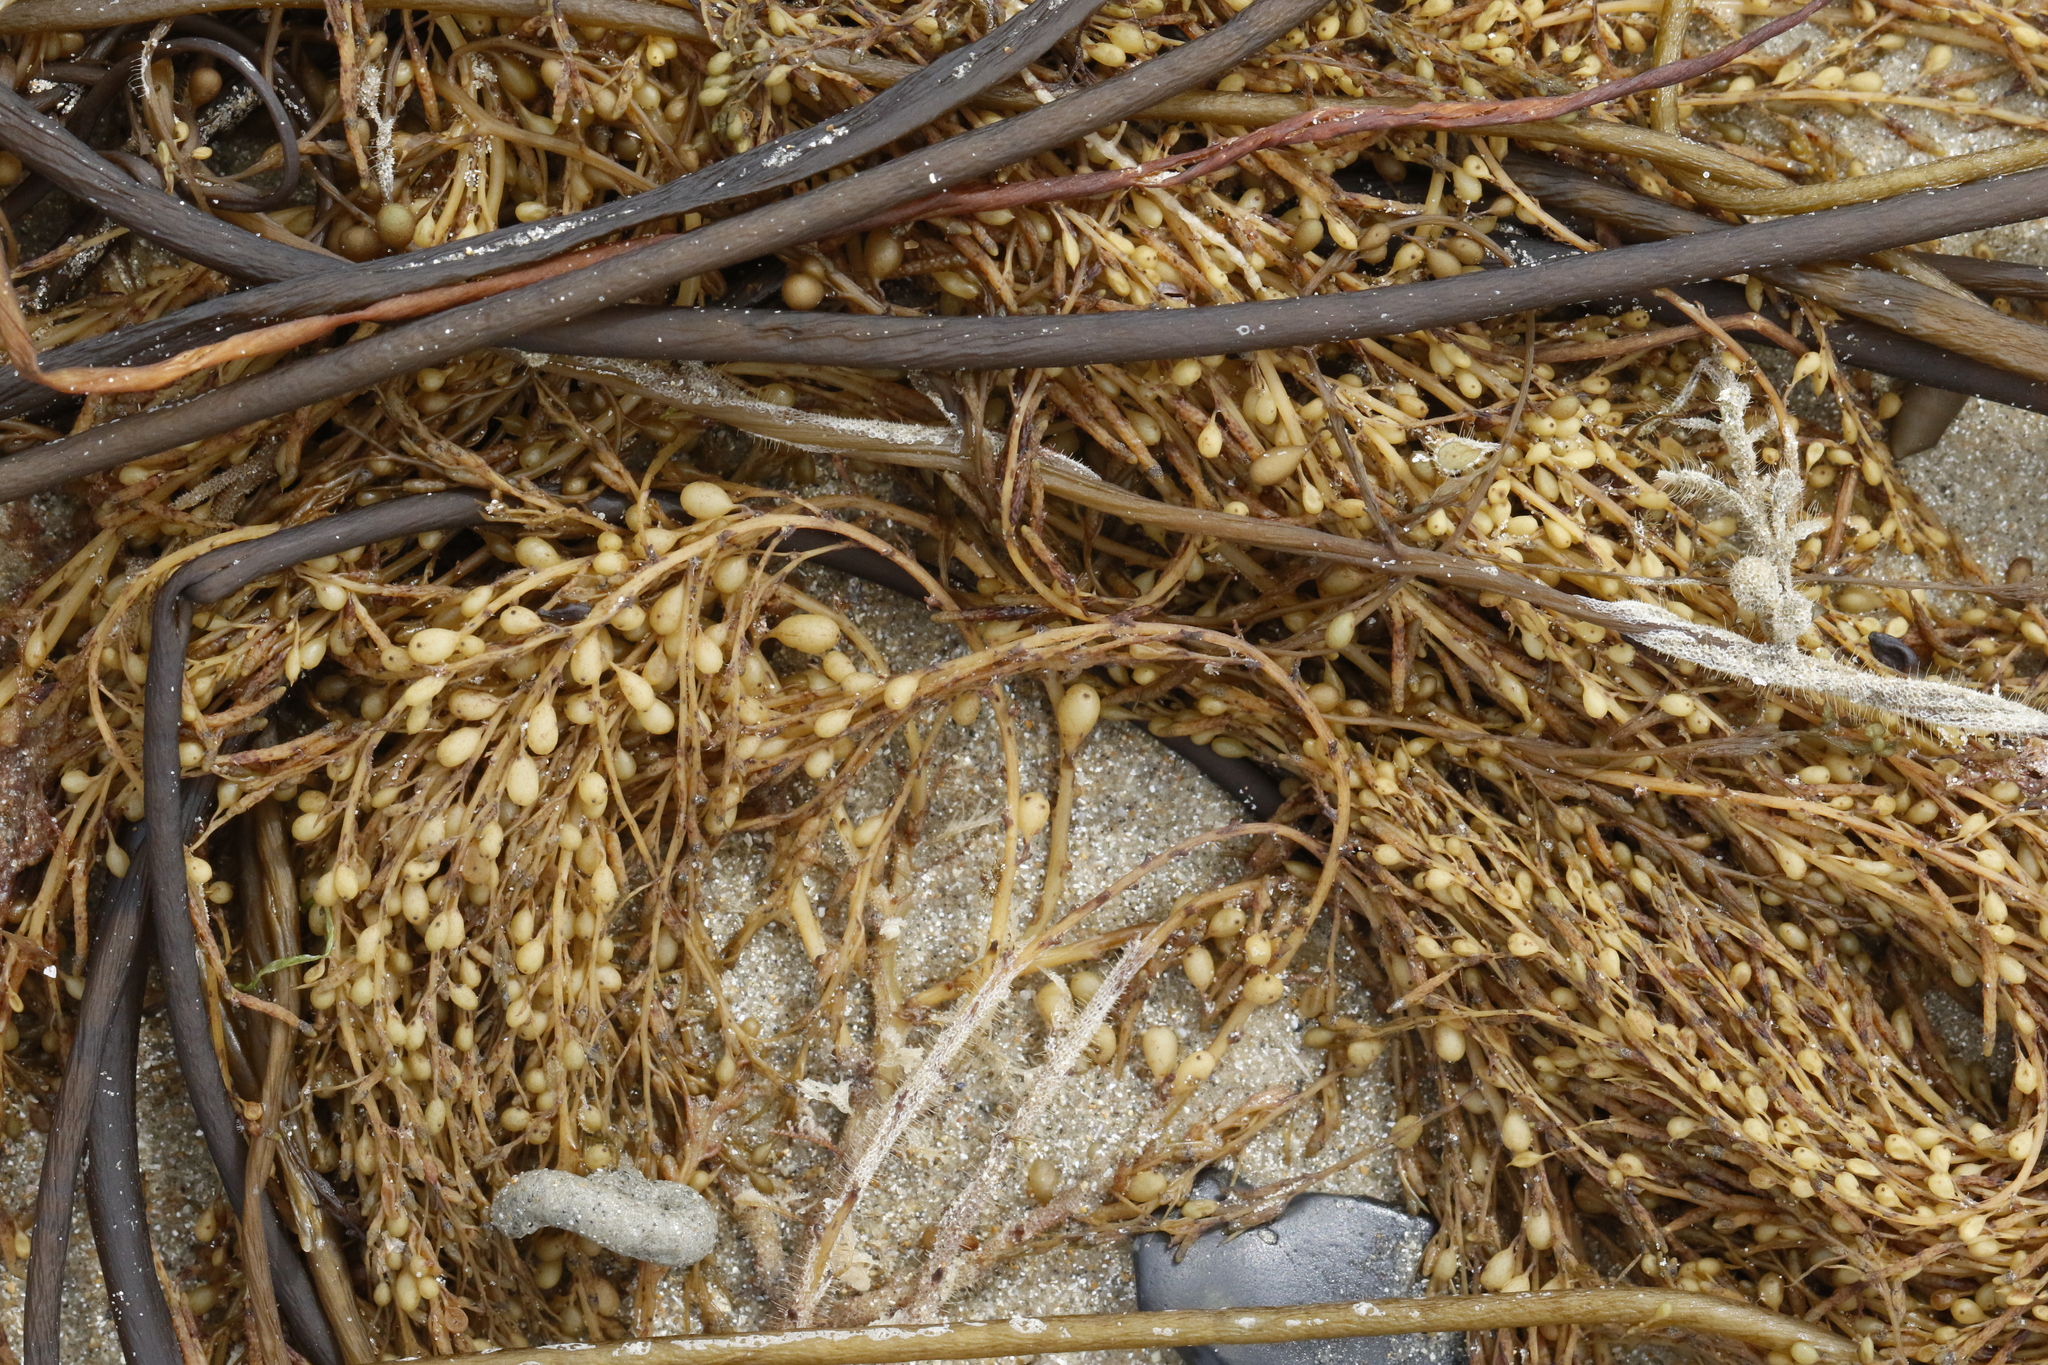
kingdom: Chromista
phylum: Ochrophyta
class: Phaeophyceae
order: Fucales
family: Sargassaceae
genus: Sargassum
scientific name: Sargassum muticum
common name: Japweed
